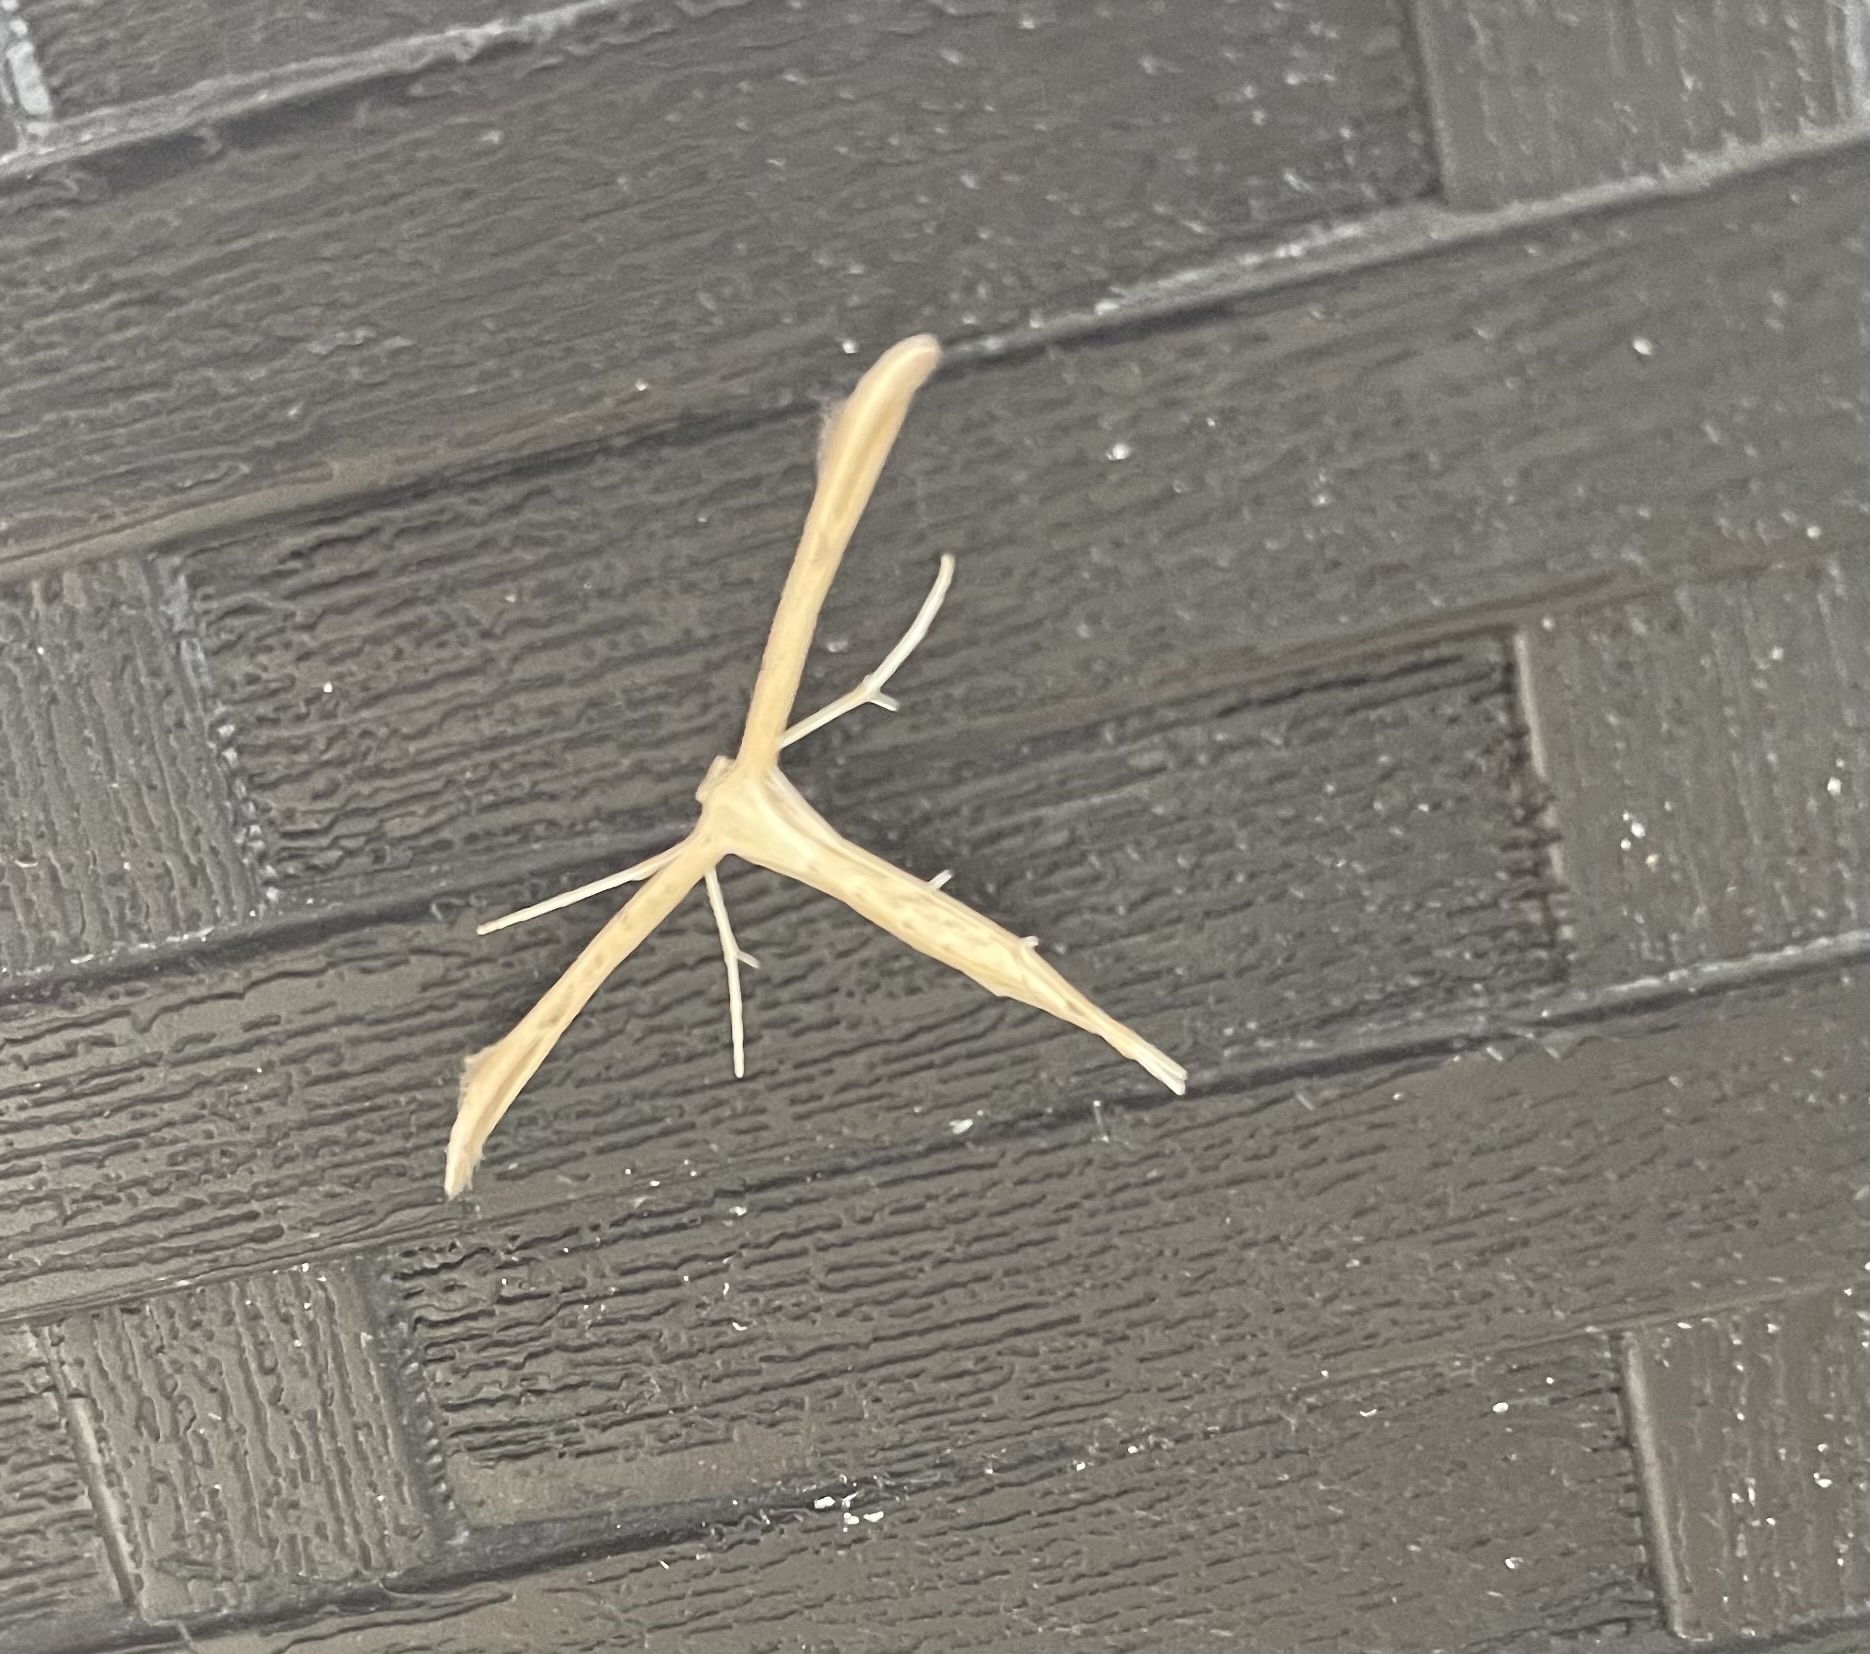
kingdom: Animalia
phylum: Arthropoda
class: Insecta
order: Lepidoptera
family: Pterophoridae
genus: Emmelina
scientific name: Emmelina monodactyla
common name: Common plume
